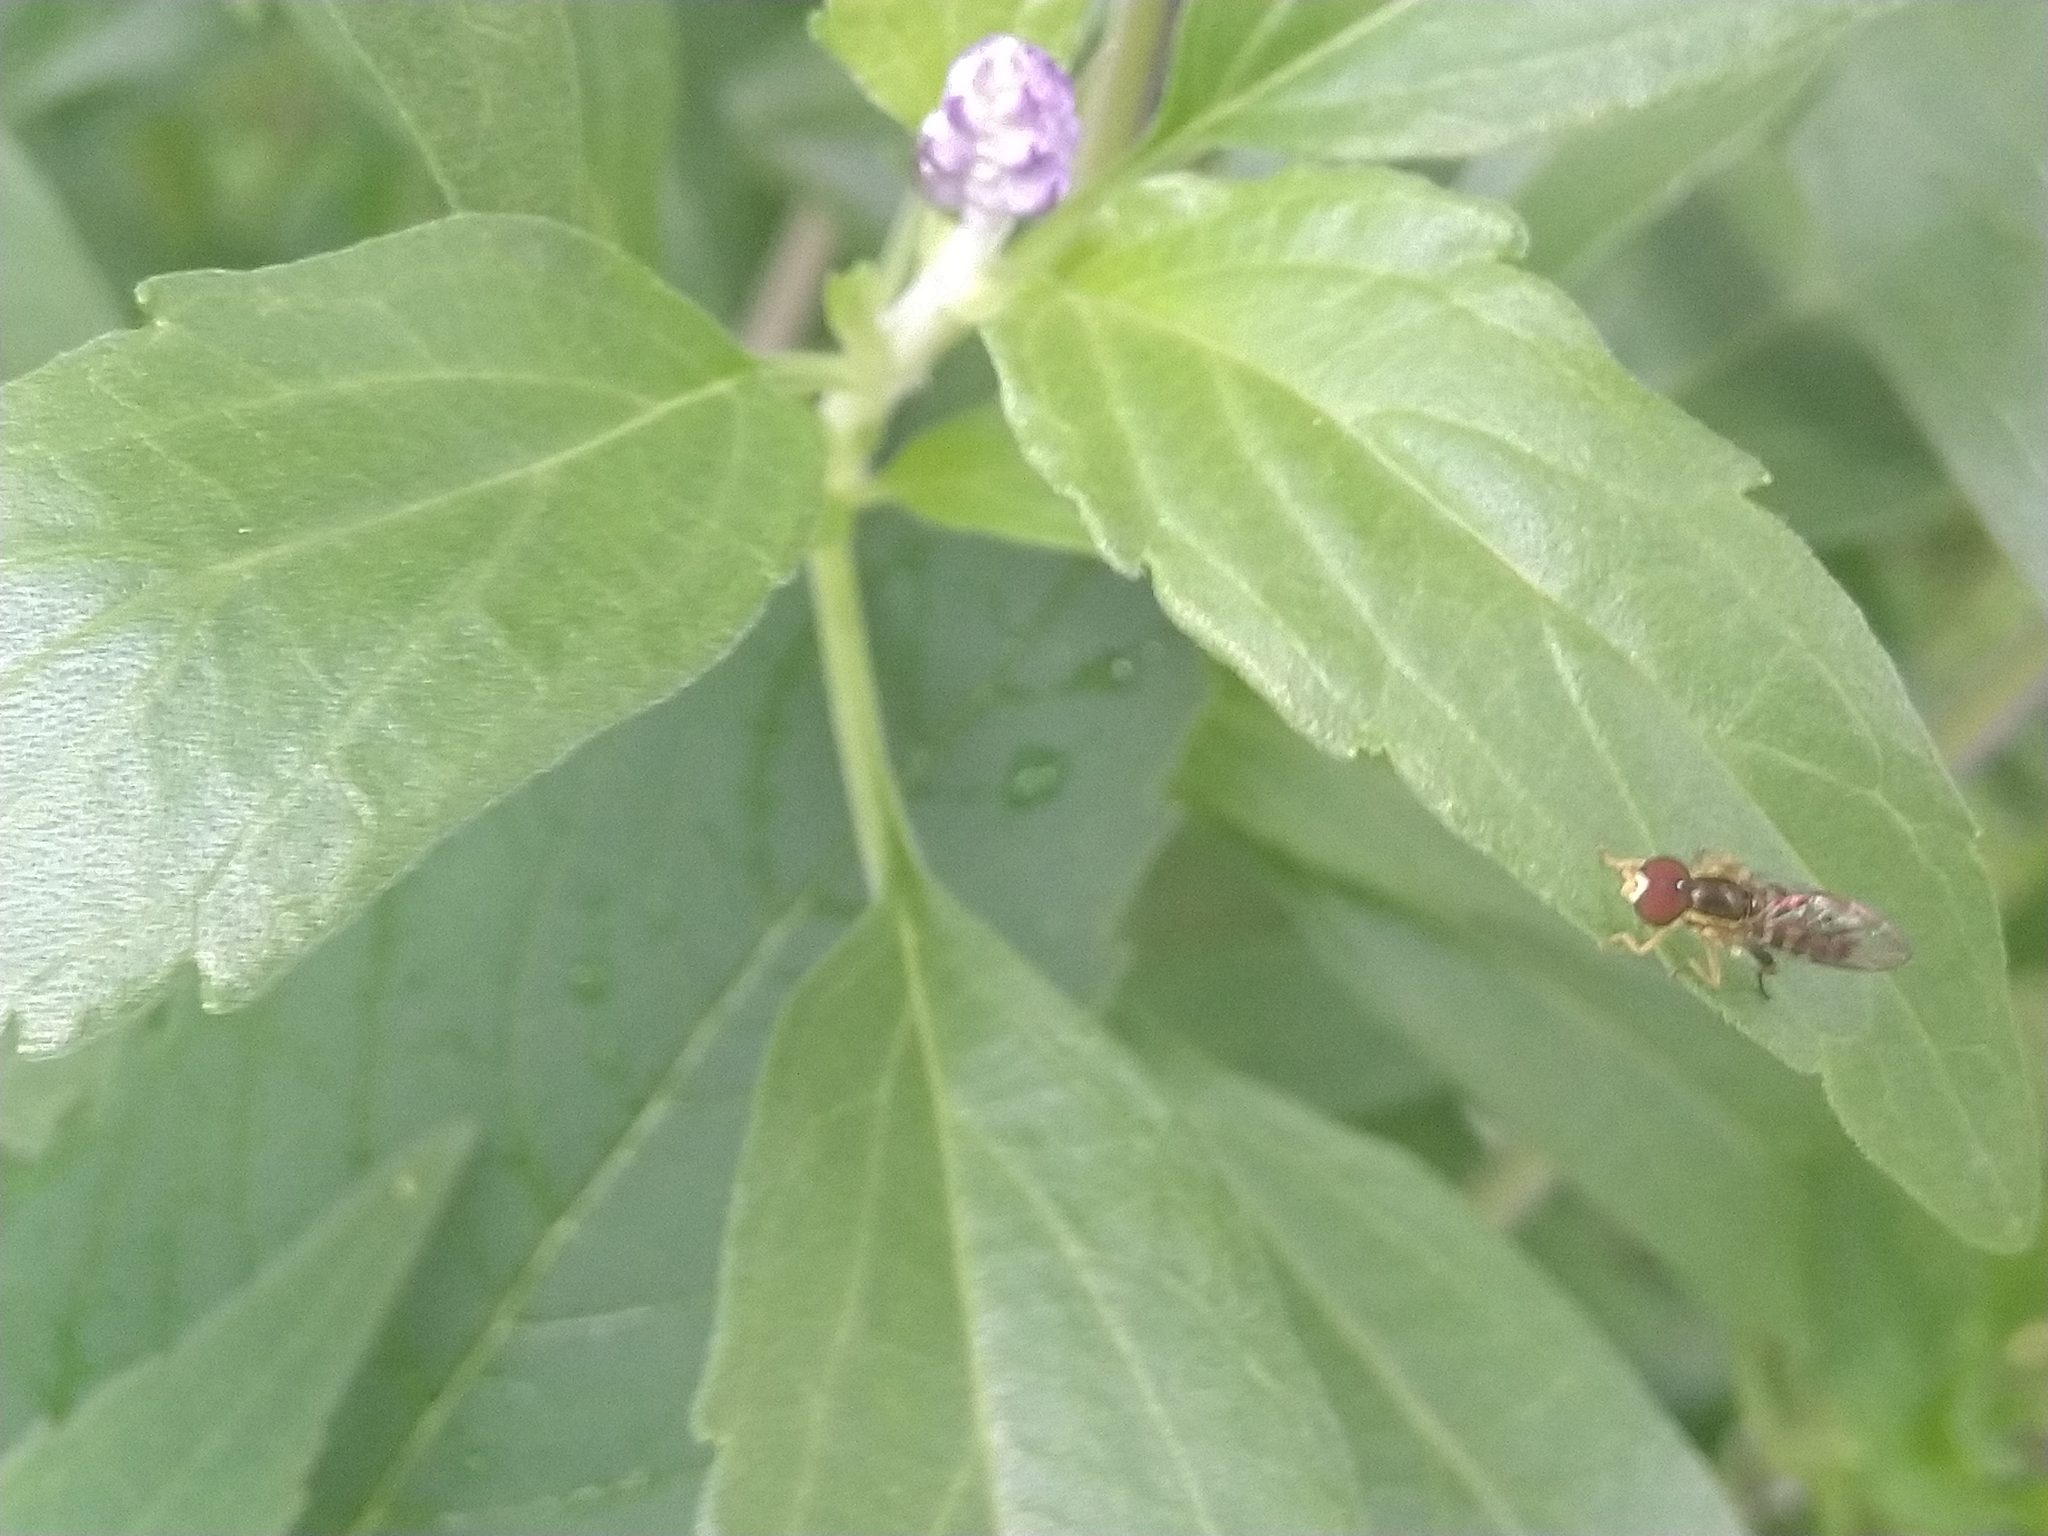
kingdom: Animalia
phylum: Arthropoda
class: Insecta
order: Diptera
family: Syrphidae
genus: Toxomerus
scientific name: Toxomerus geminatus
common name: Eastern calligrapher
